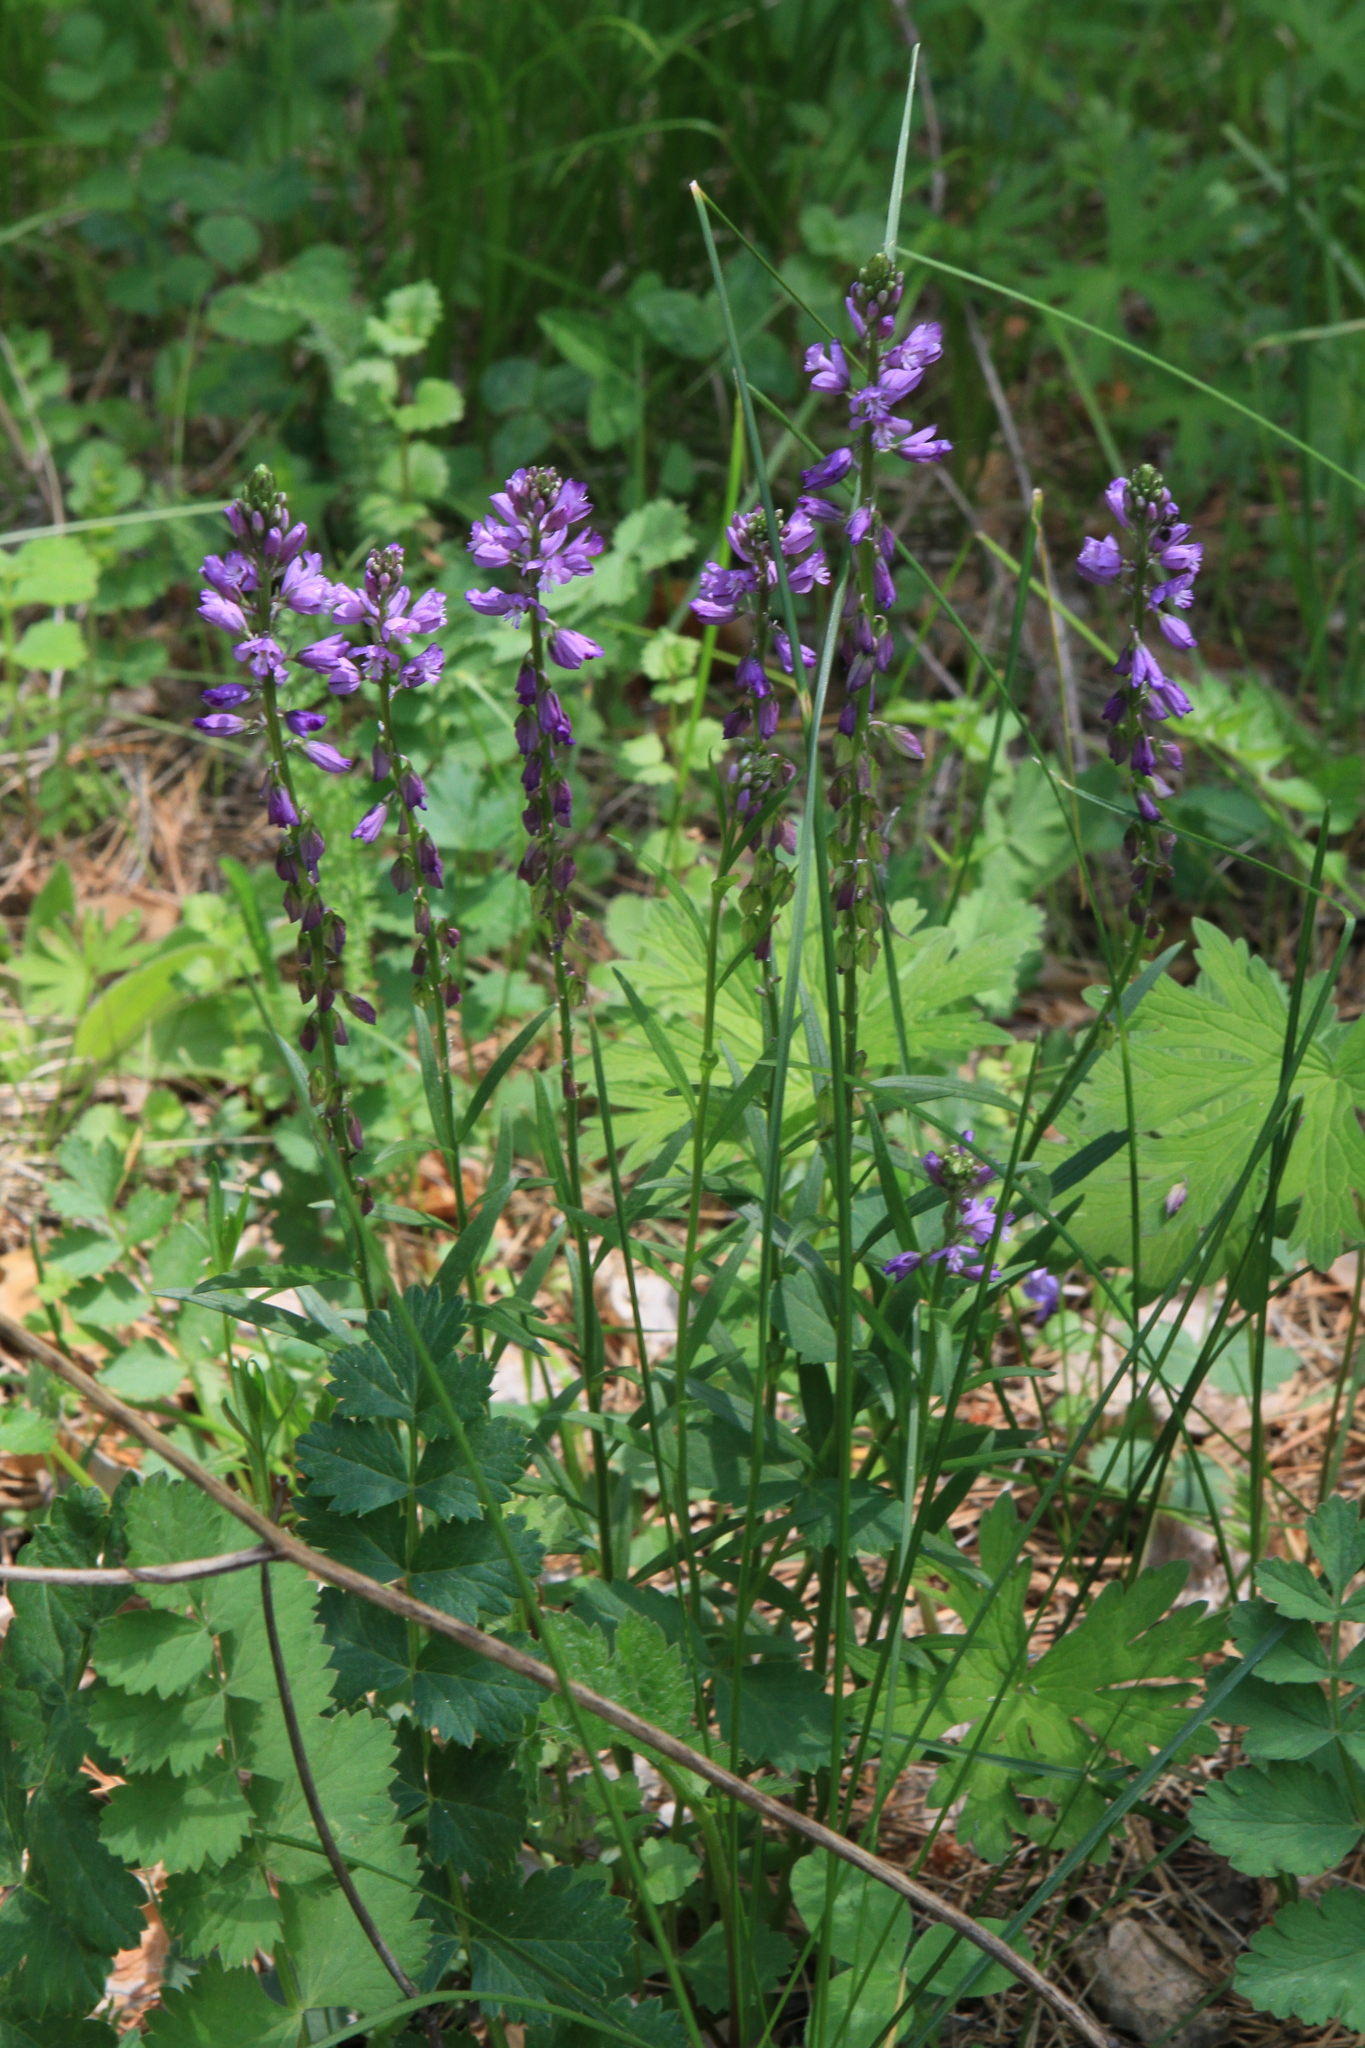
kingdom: Plantae
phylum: Tracheophyta
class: Magnoliopsida
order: Fabales
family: Polygalaceae
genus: Polygala
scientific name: Polygala comosa
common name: Tufted milkwort
